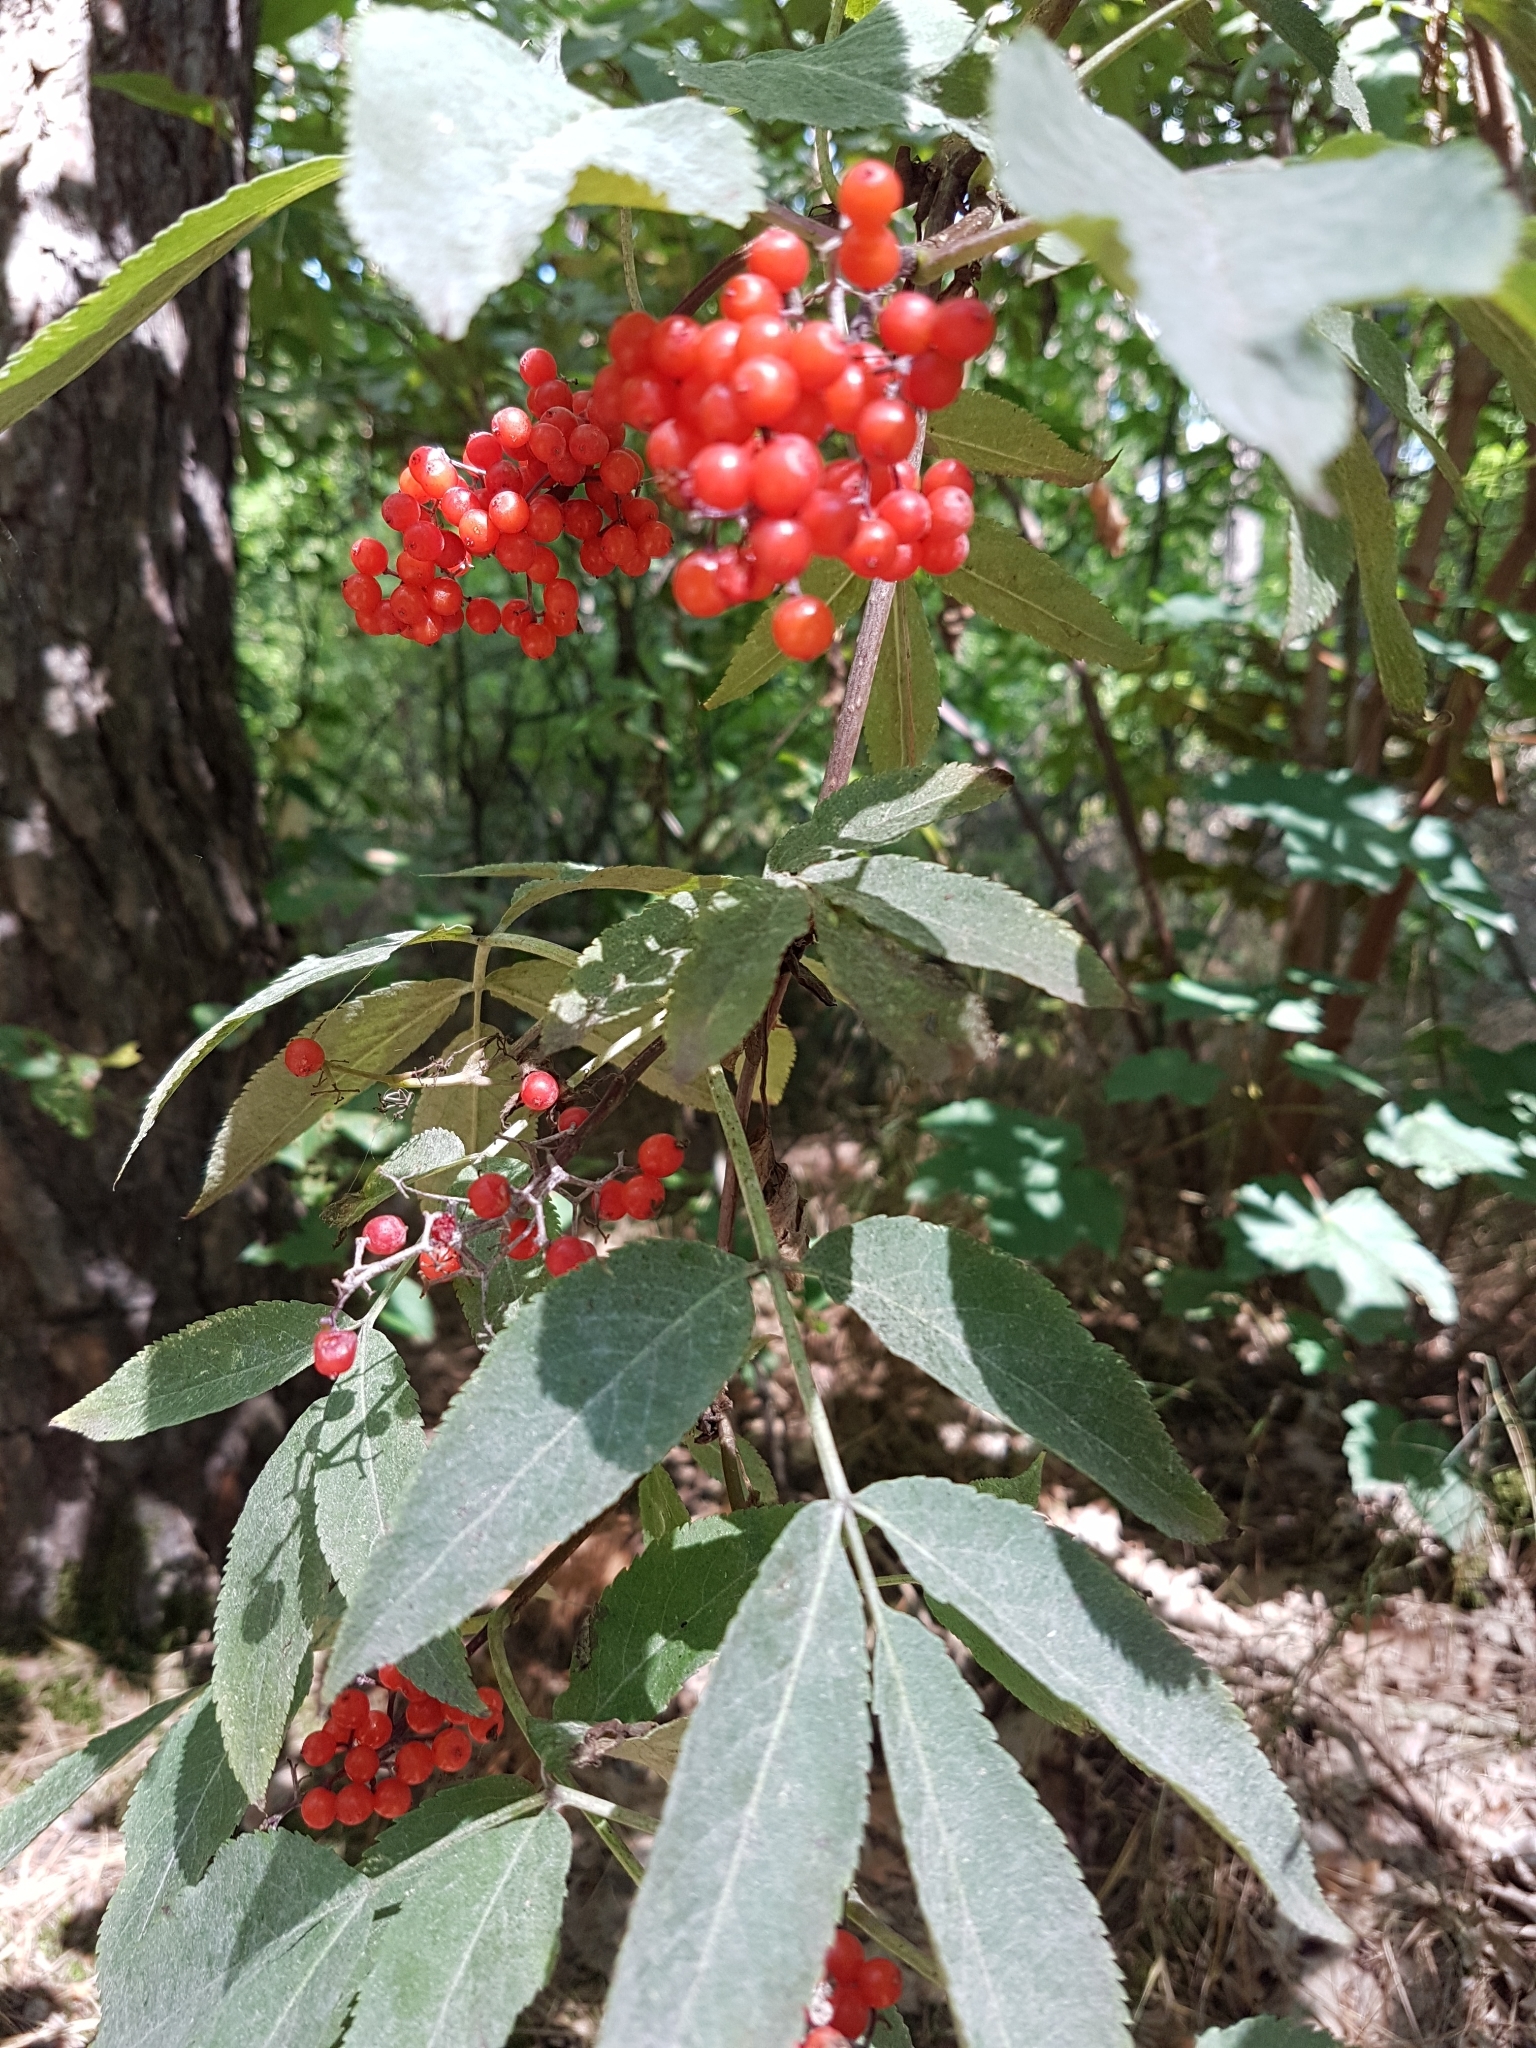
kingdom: Plantae
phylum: Tracheophyta
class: Magnoliopsida
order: Dipsacales
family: Viburnaceae
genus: Sambucus
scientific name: Sambucus racemosa
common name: Red-berried elder
